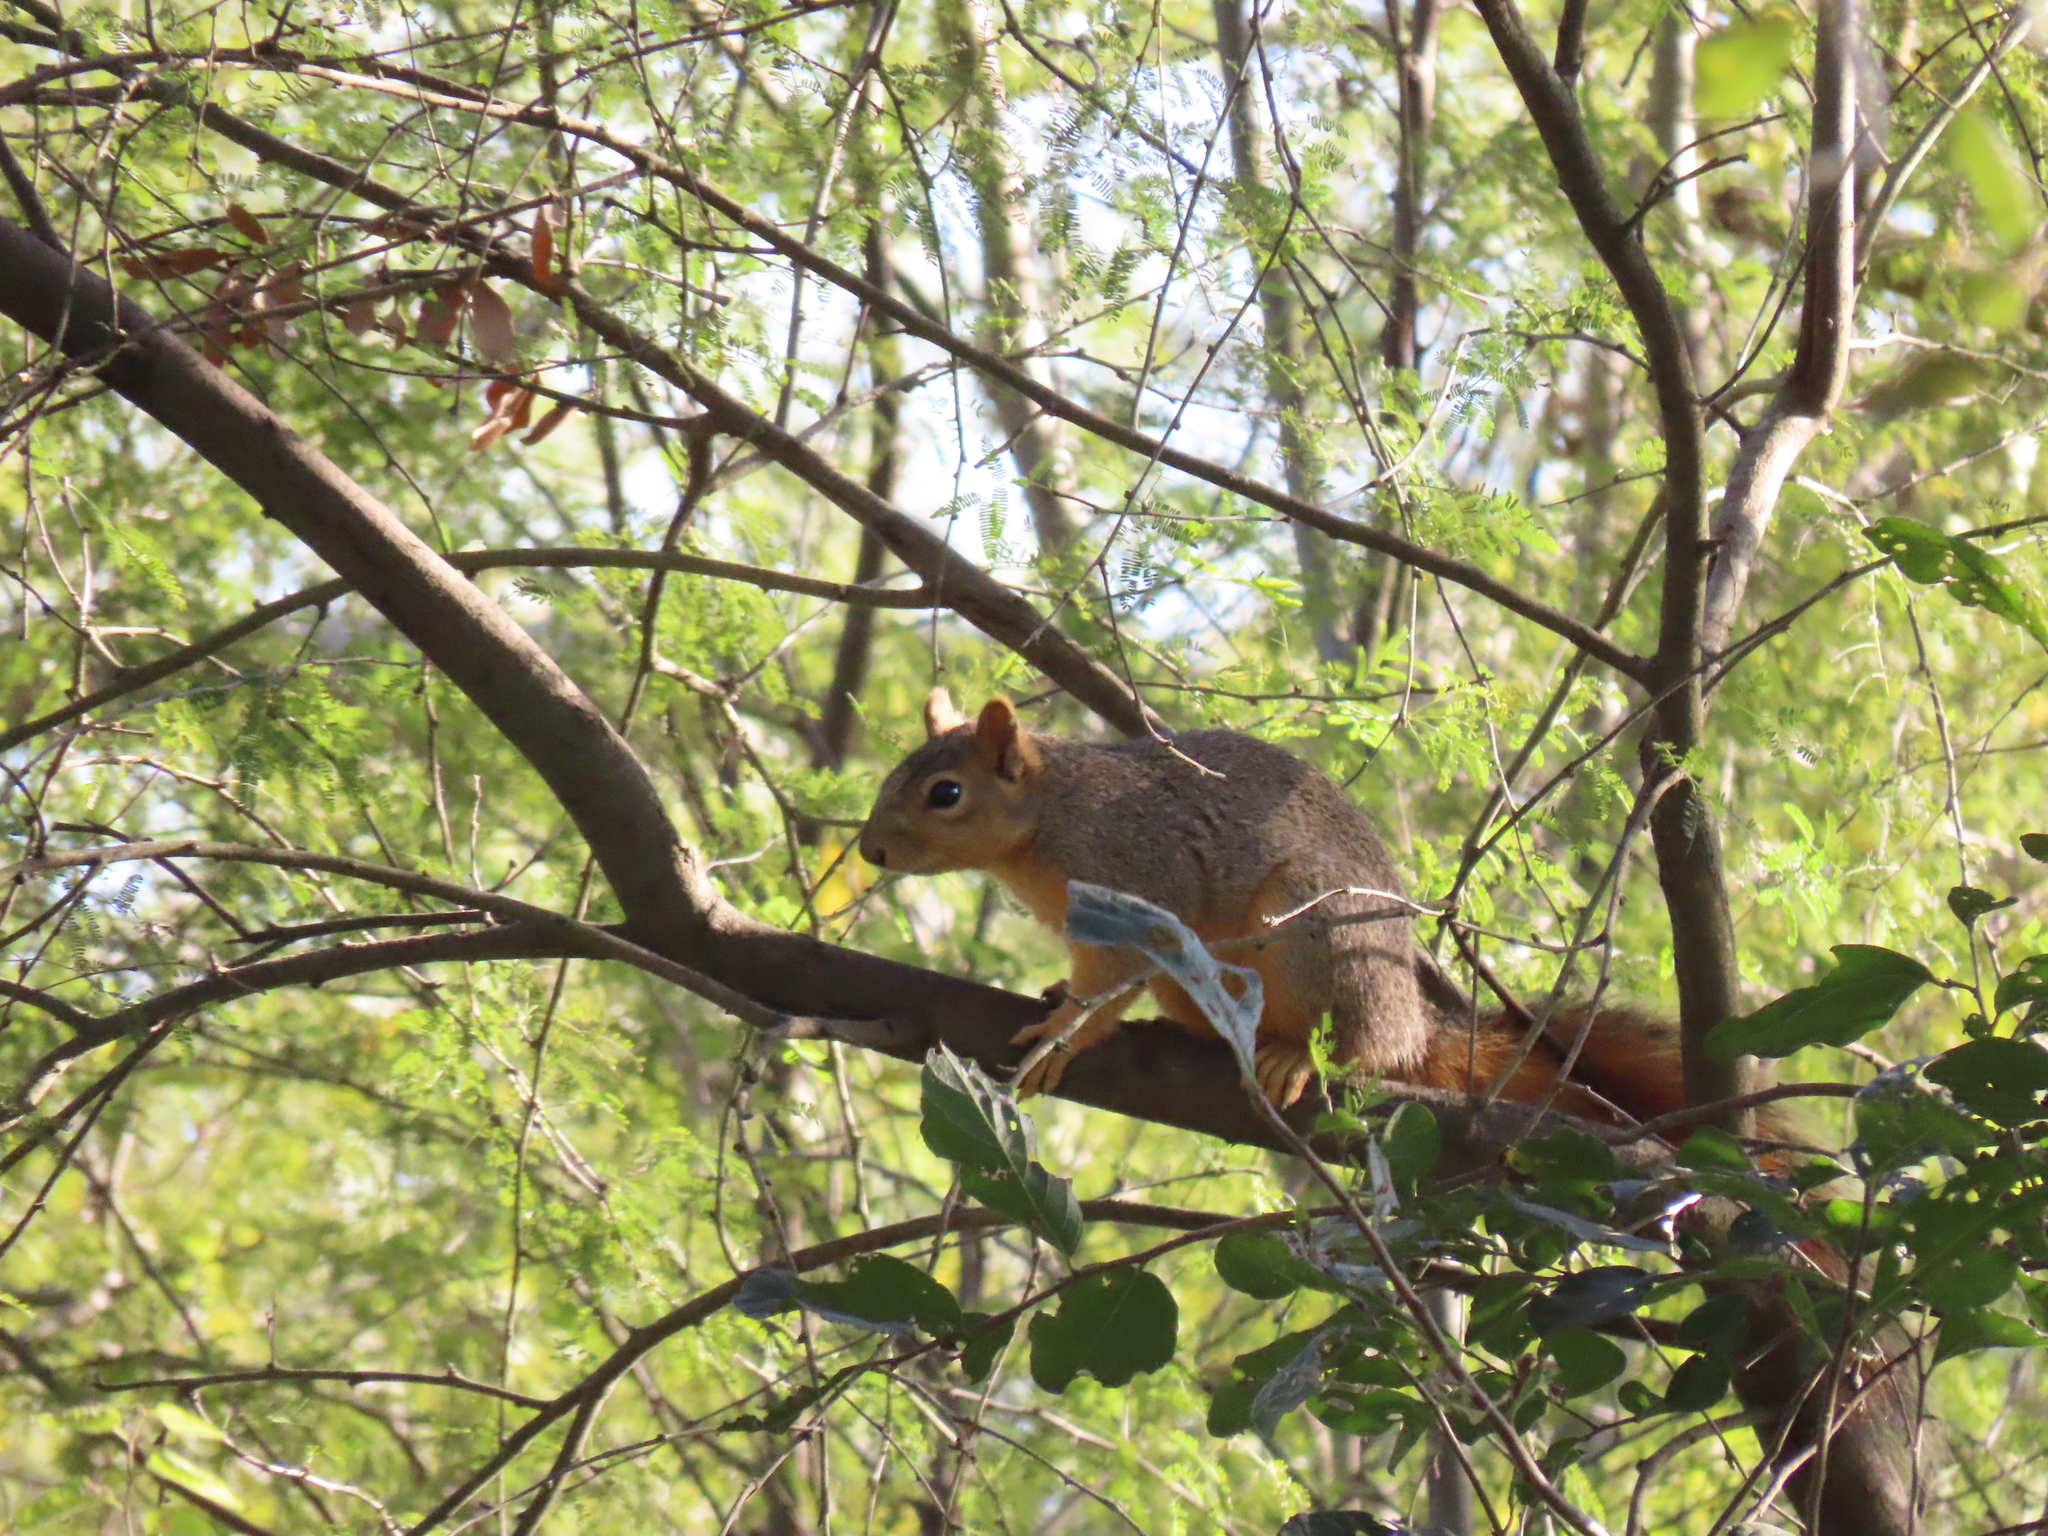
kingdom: Animalia
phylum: Chordata
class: Mammalia
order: Rodentia
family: Sciuridae
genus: Sciurus
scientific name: Sciurus niger
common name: Fox squirrel
